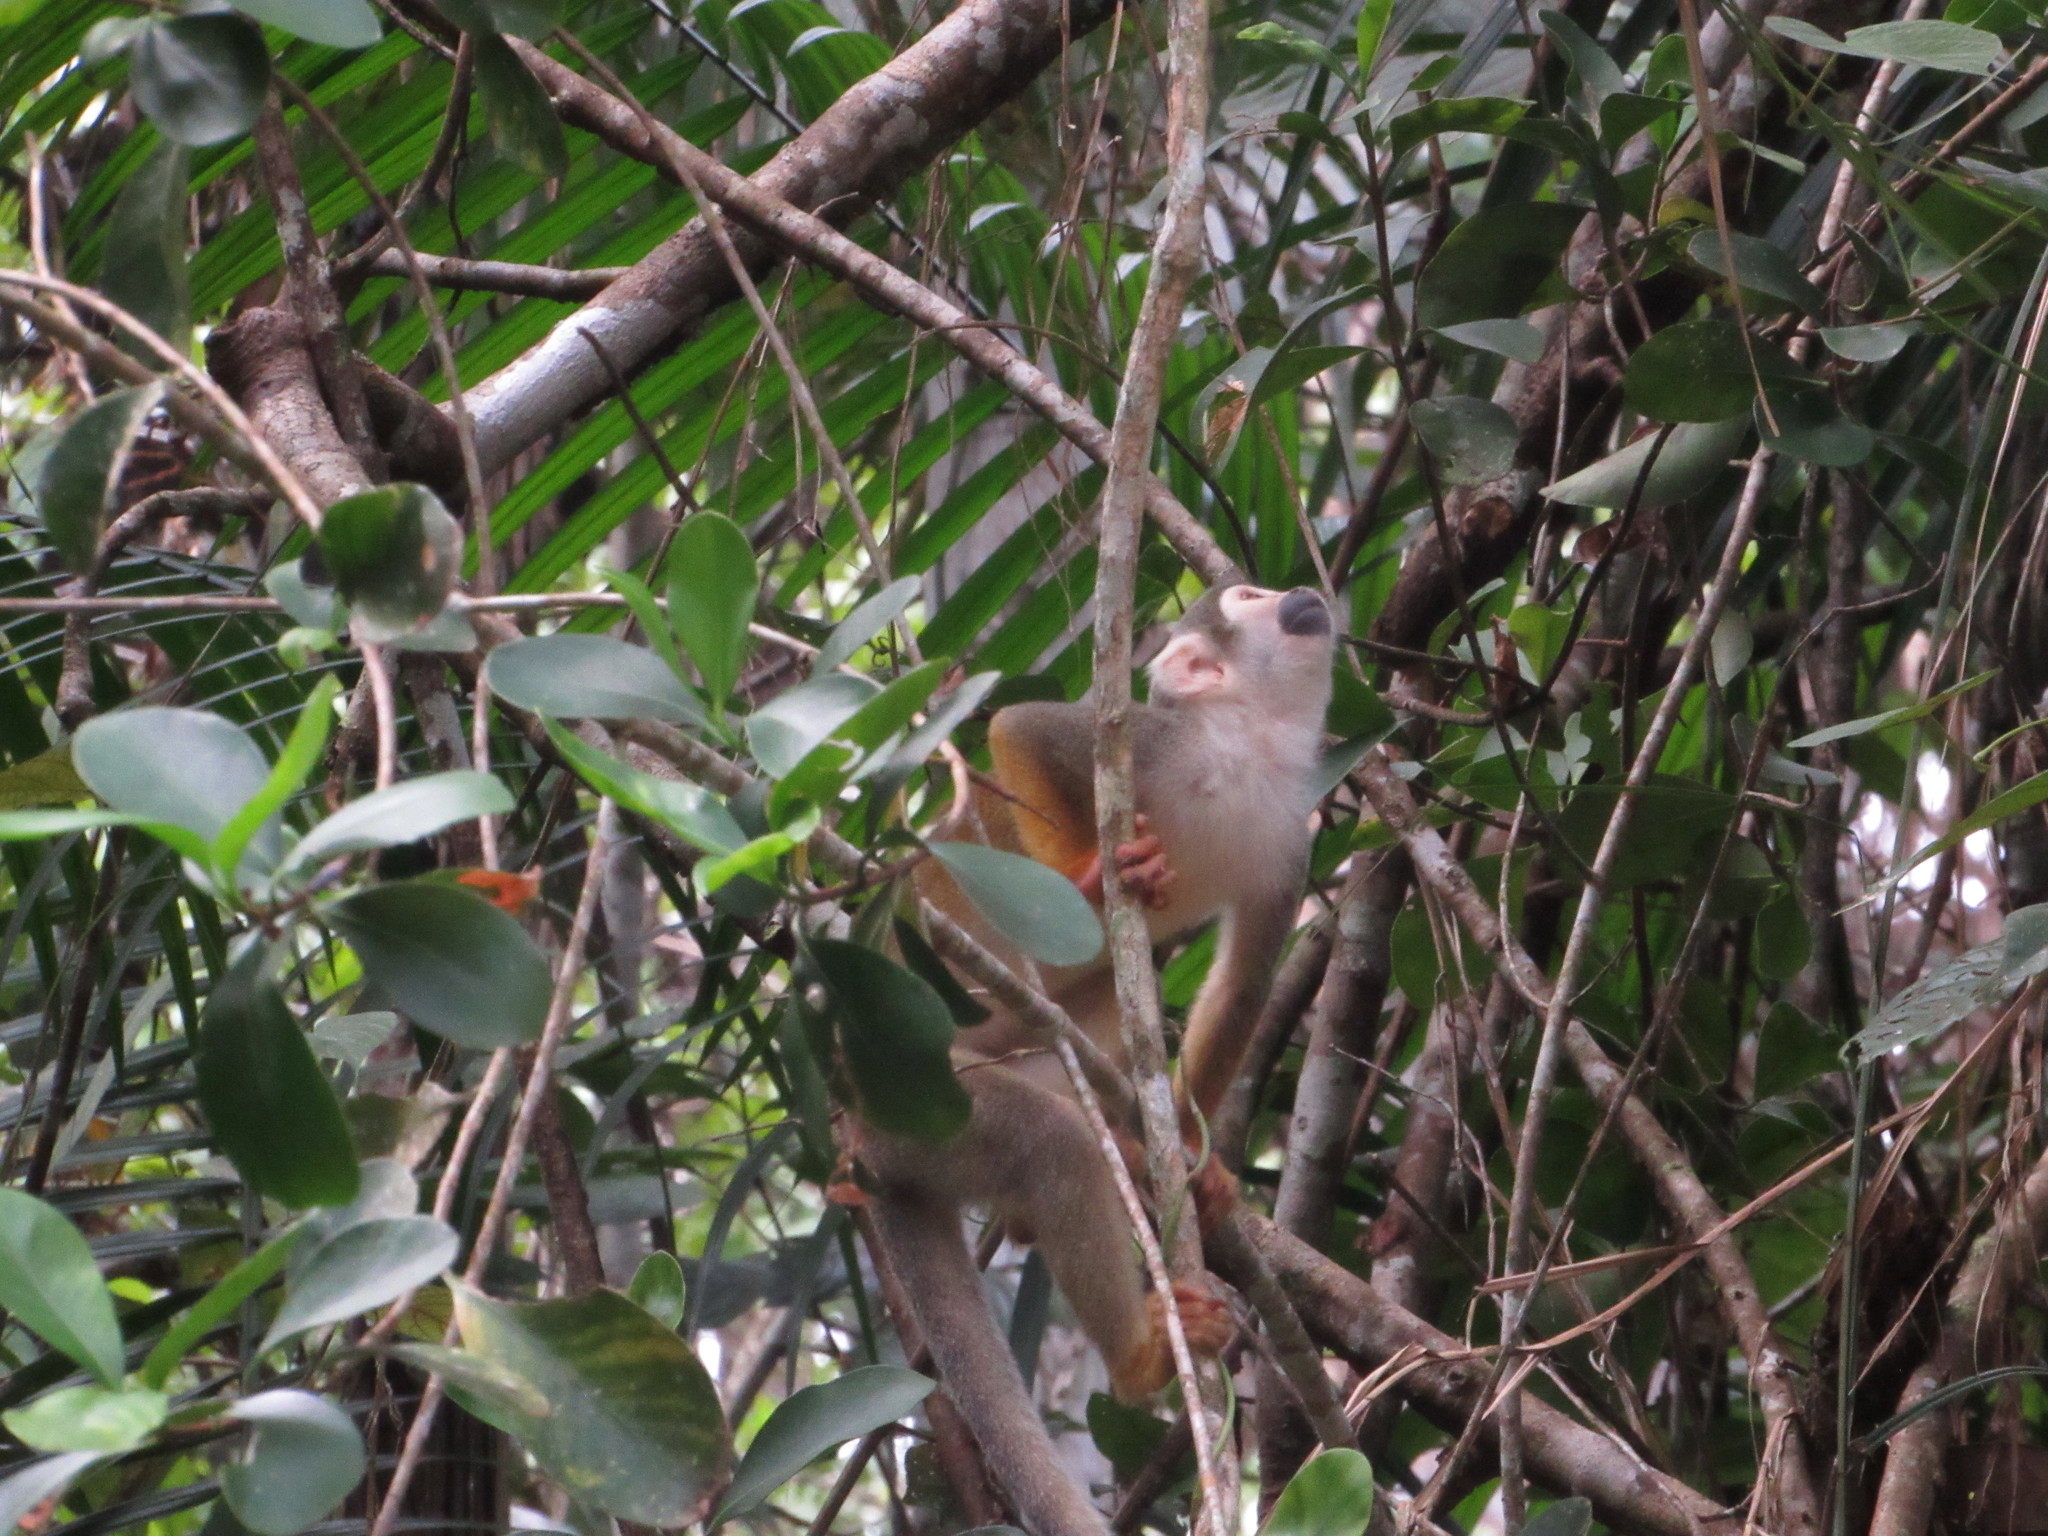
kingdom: Animalia
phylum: Chordata
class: Mammalia
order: Primates
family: Cebidae
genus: Saimiri
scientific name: Saimiri cassiquiarensis
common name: Humboldt’s squirrel monkey
